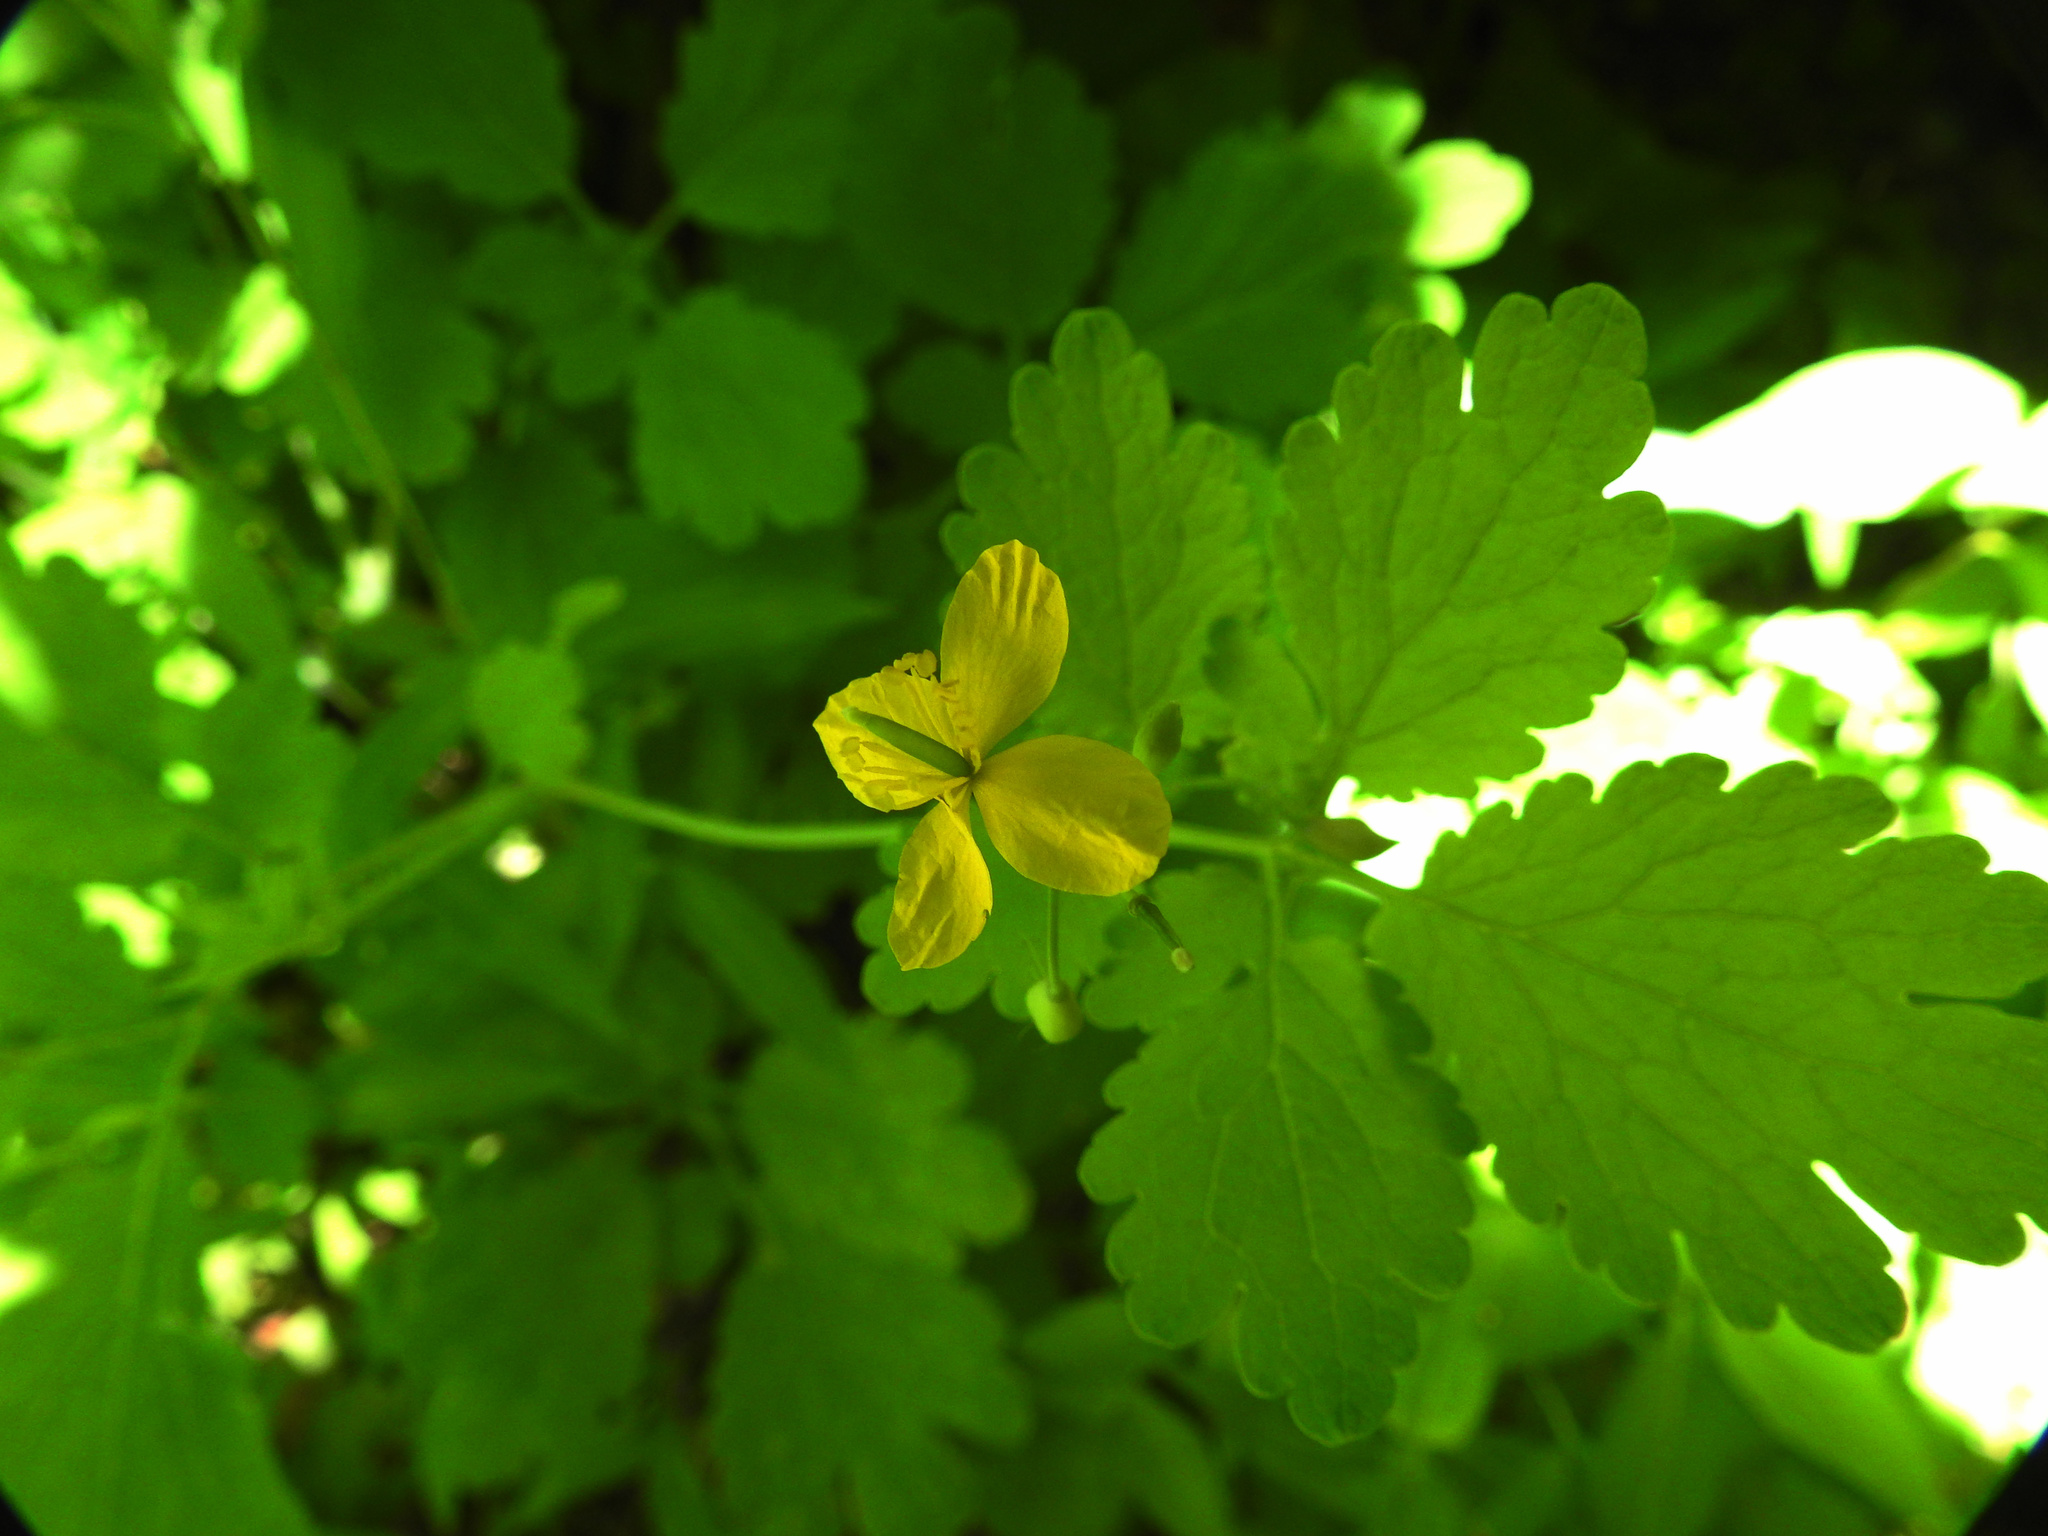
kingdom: Plantae
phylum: Tracheophyta
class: Magnoliopsida
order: Ranunculales
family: Papaveraceae
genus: Chelidonium
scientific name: Chelidonium majus
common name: Greater celandine
